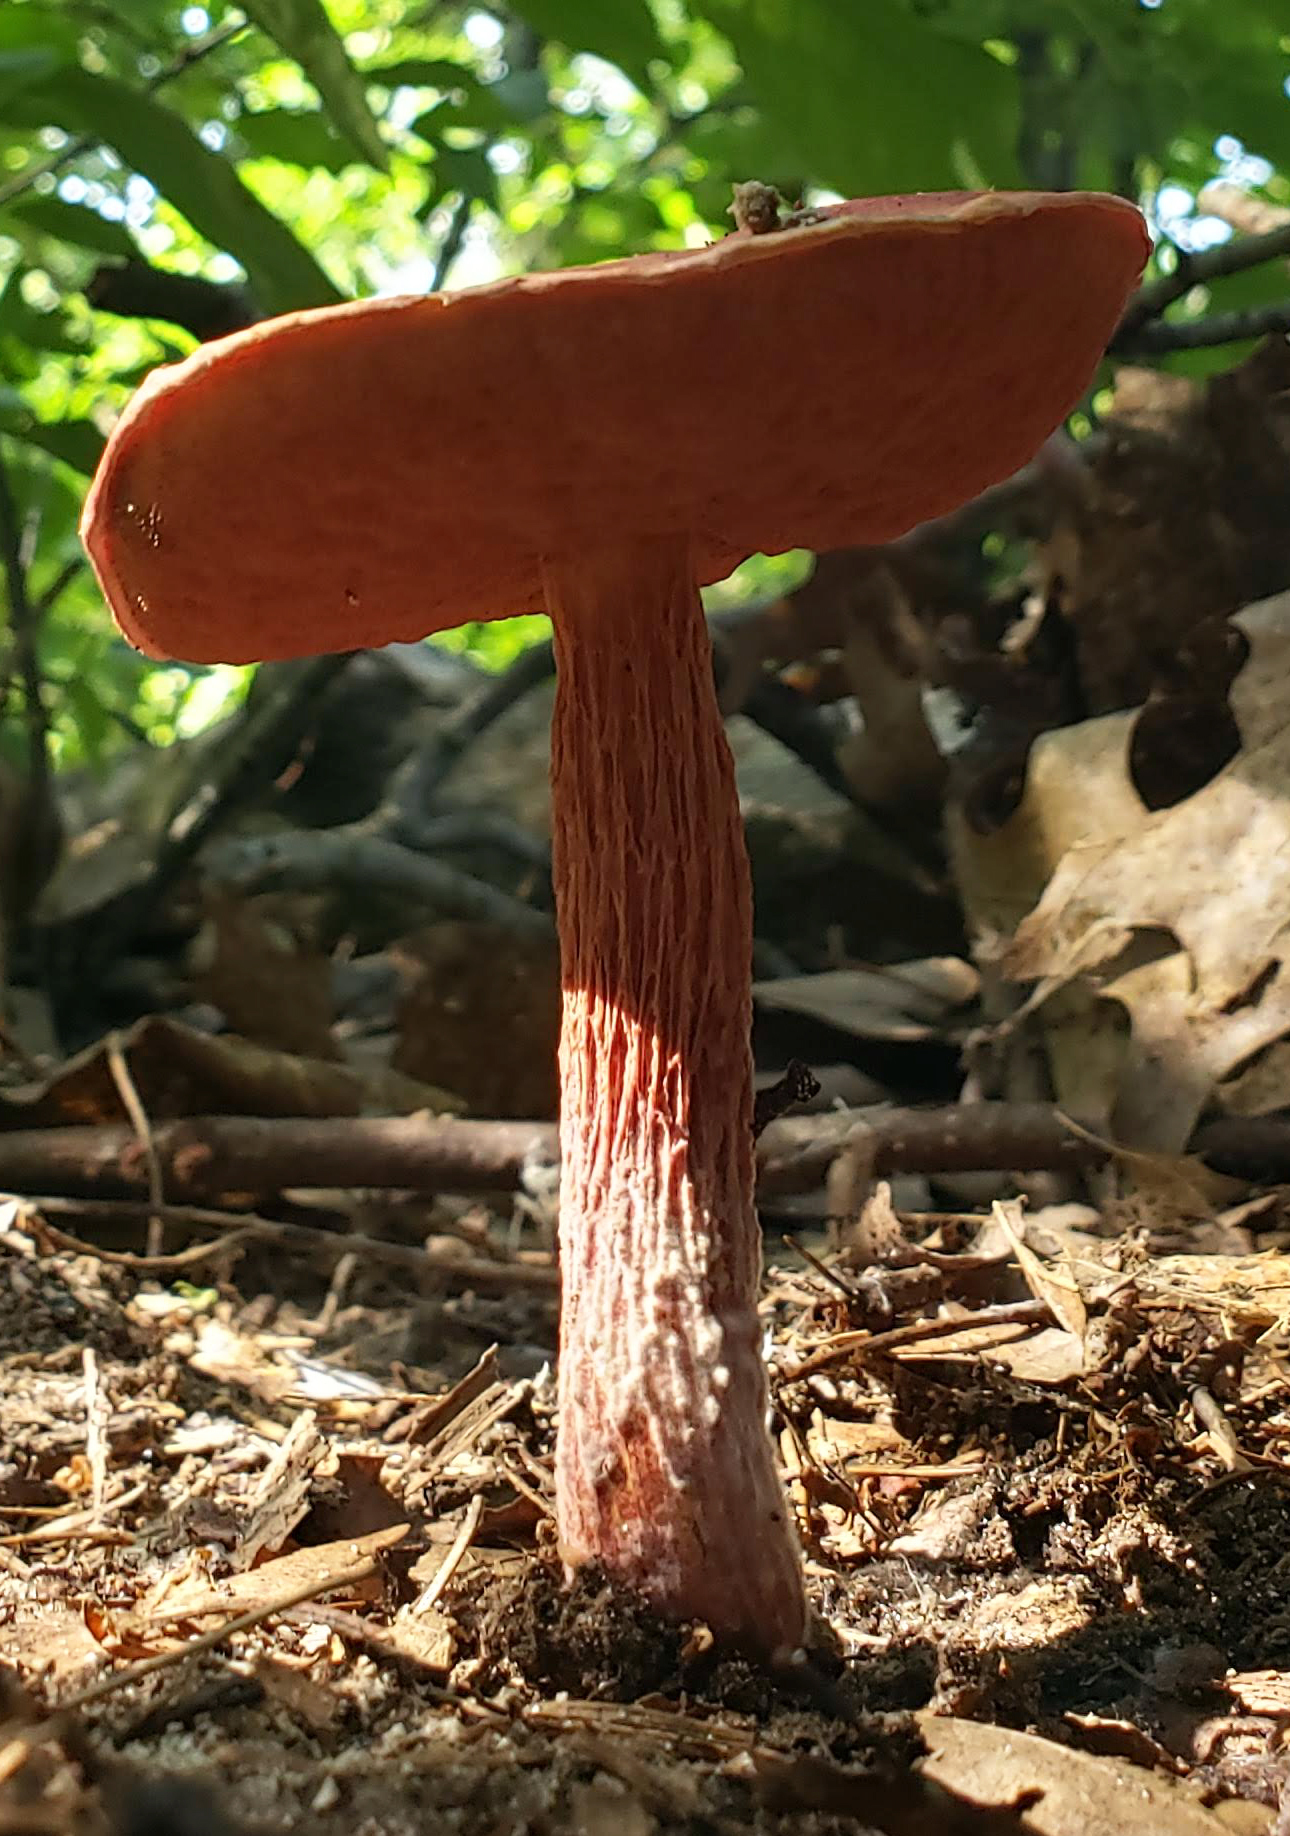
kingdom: Fungi
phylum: Basidiomycota
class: Agaricomycetes
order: Boletales
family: Boletaceae
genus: Butyriboletus
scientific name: Butyriboletus frostii
